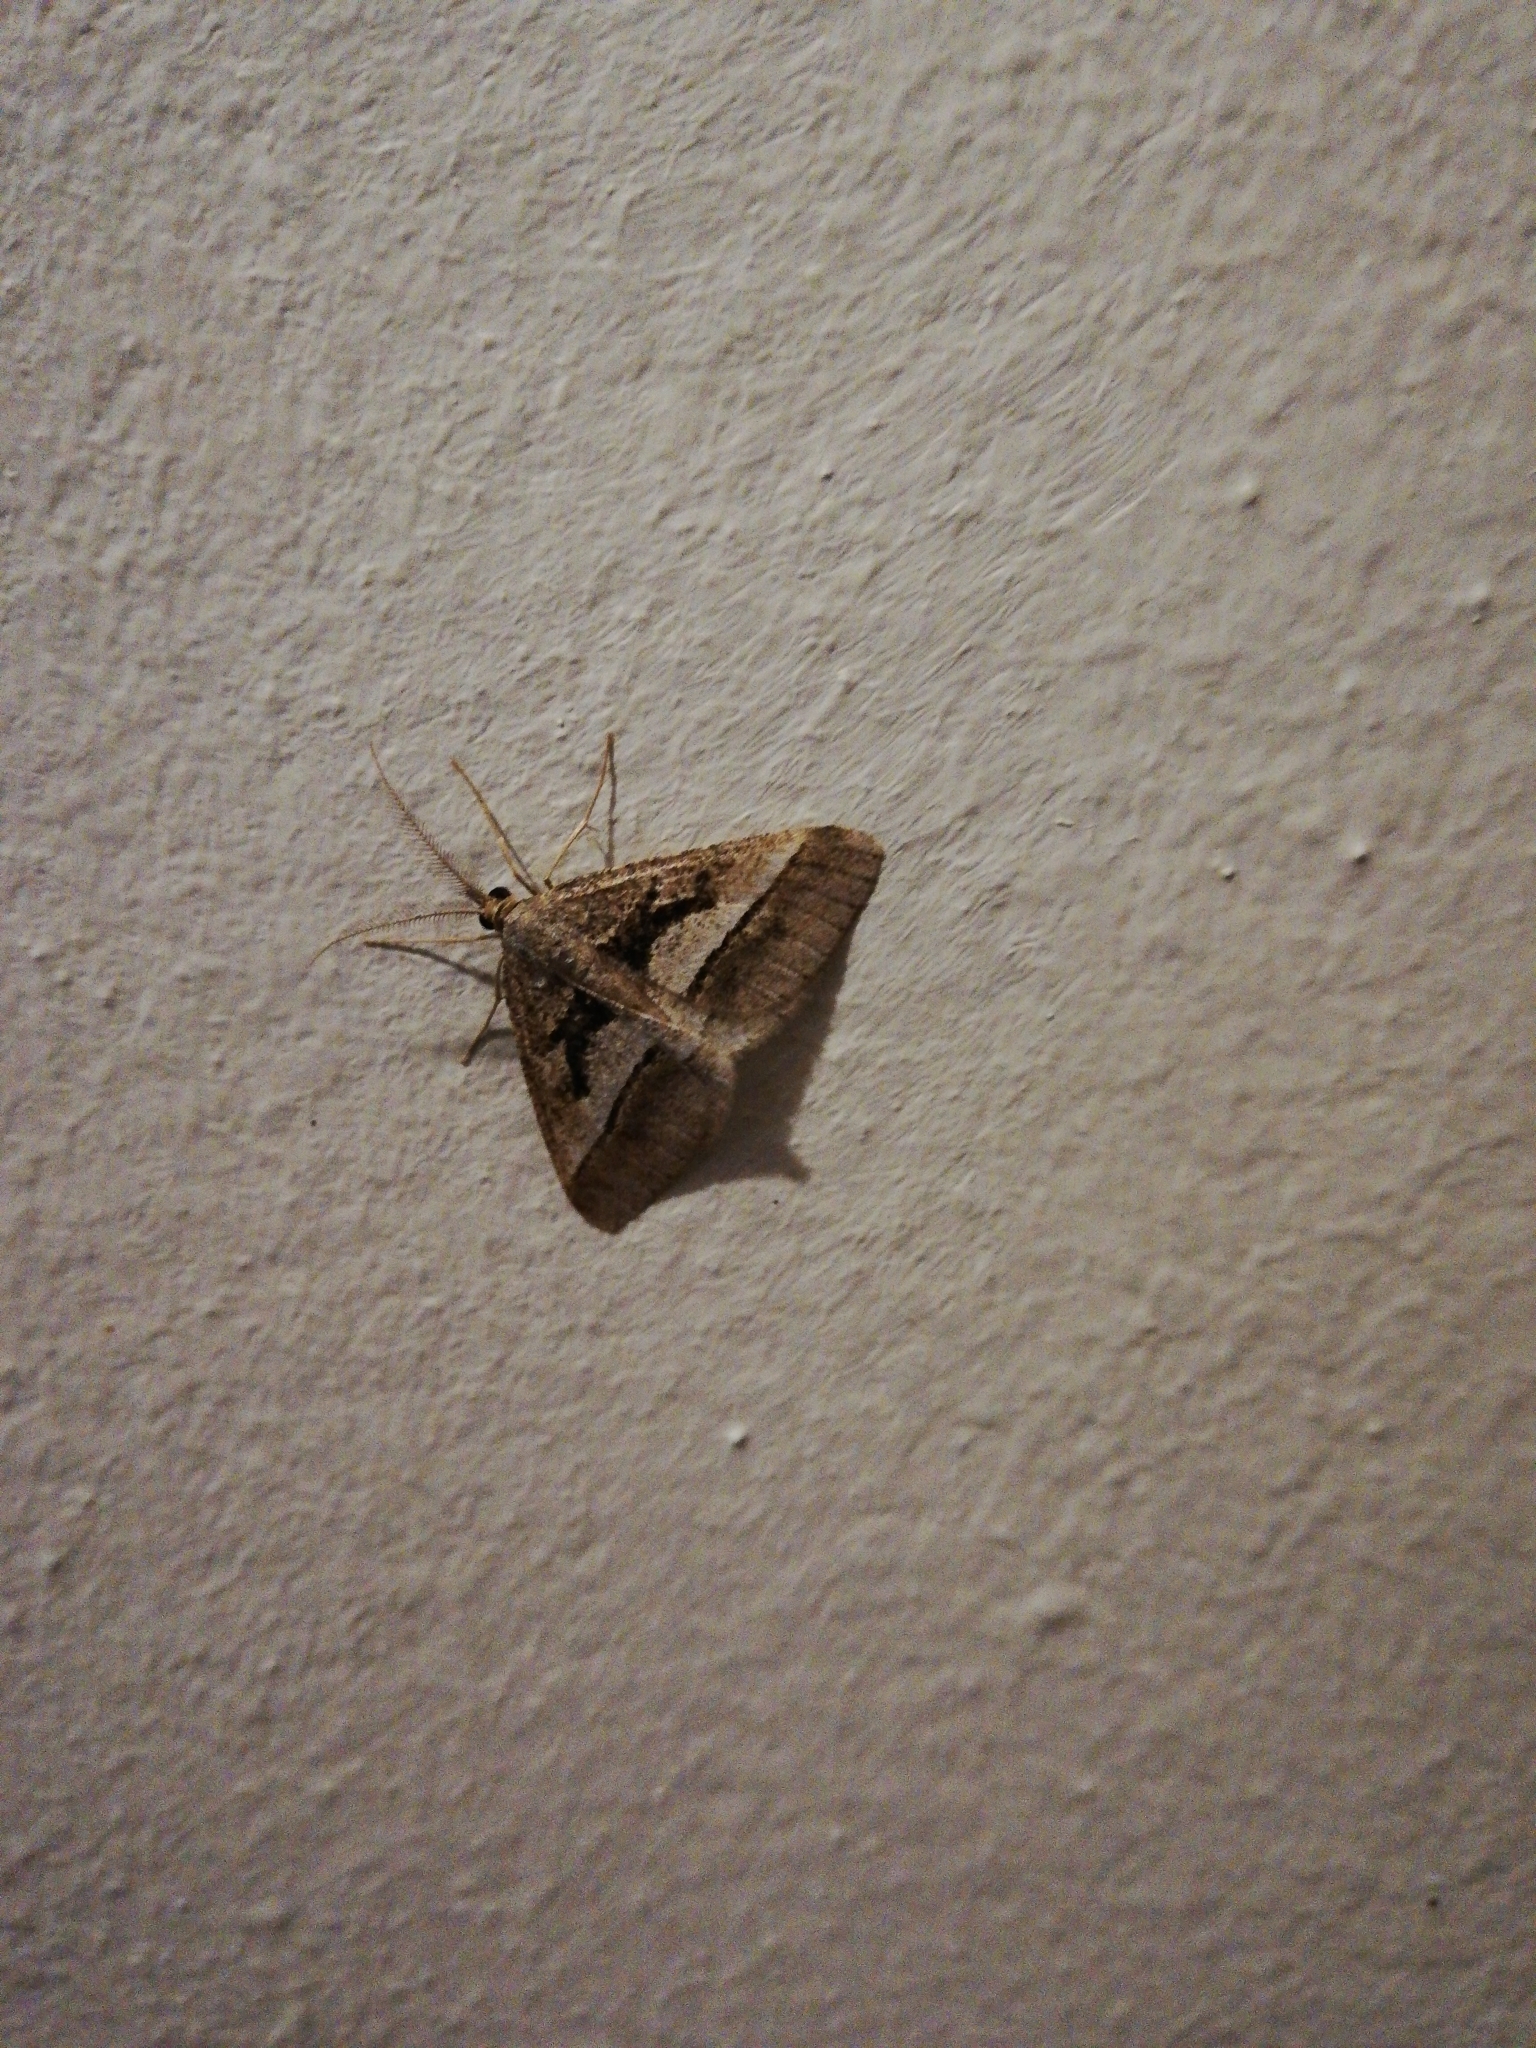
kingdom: Animalia
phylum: Arthropoda
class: Insecta
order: Lepidoptera
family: Geometridae
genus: Chiasmia
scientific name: Chiasmia observata
